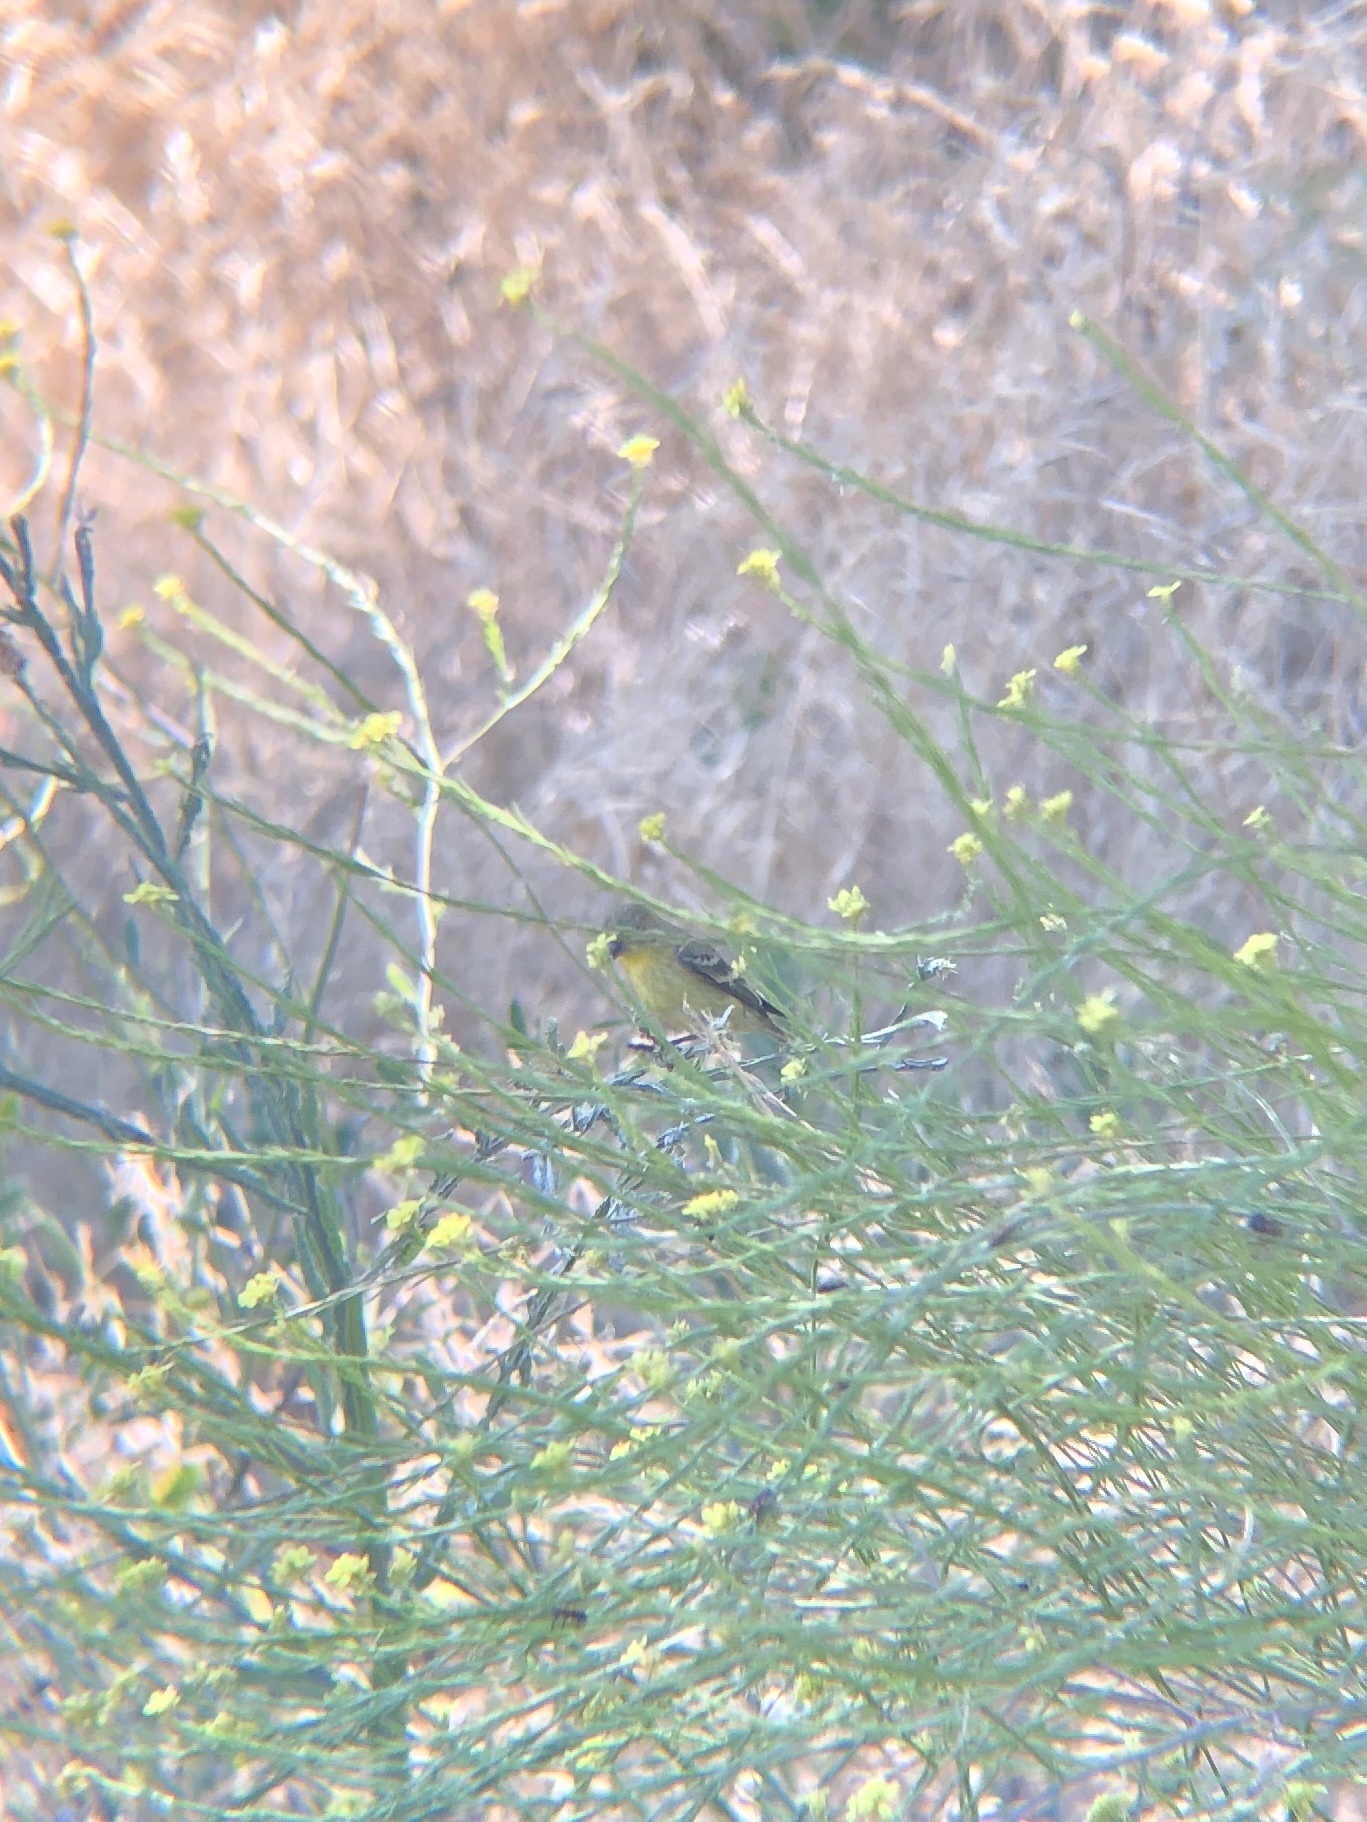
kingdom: Animalia
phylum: Chordata
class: Aves
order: Passeriformes
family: Fringillidae
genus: Spinus
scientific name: Spinus psaltria
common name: Lesser goldfinch
